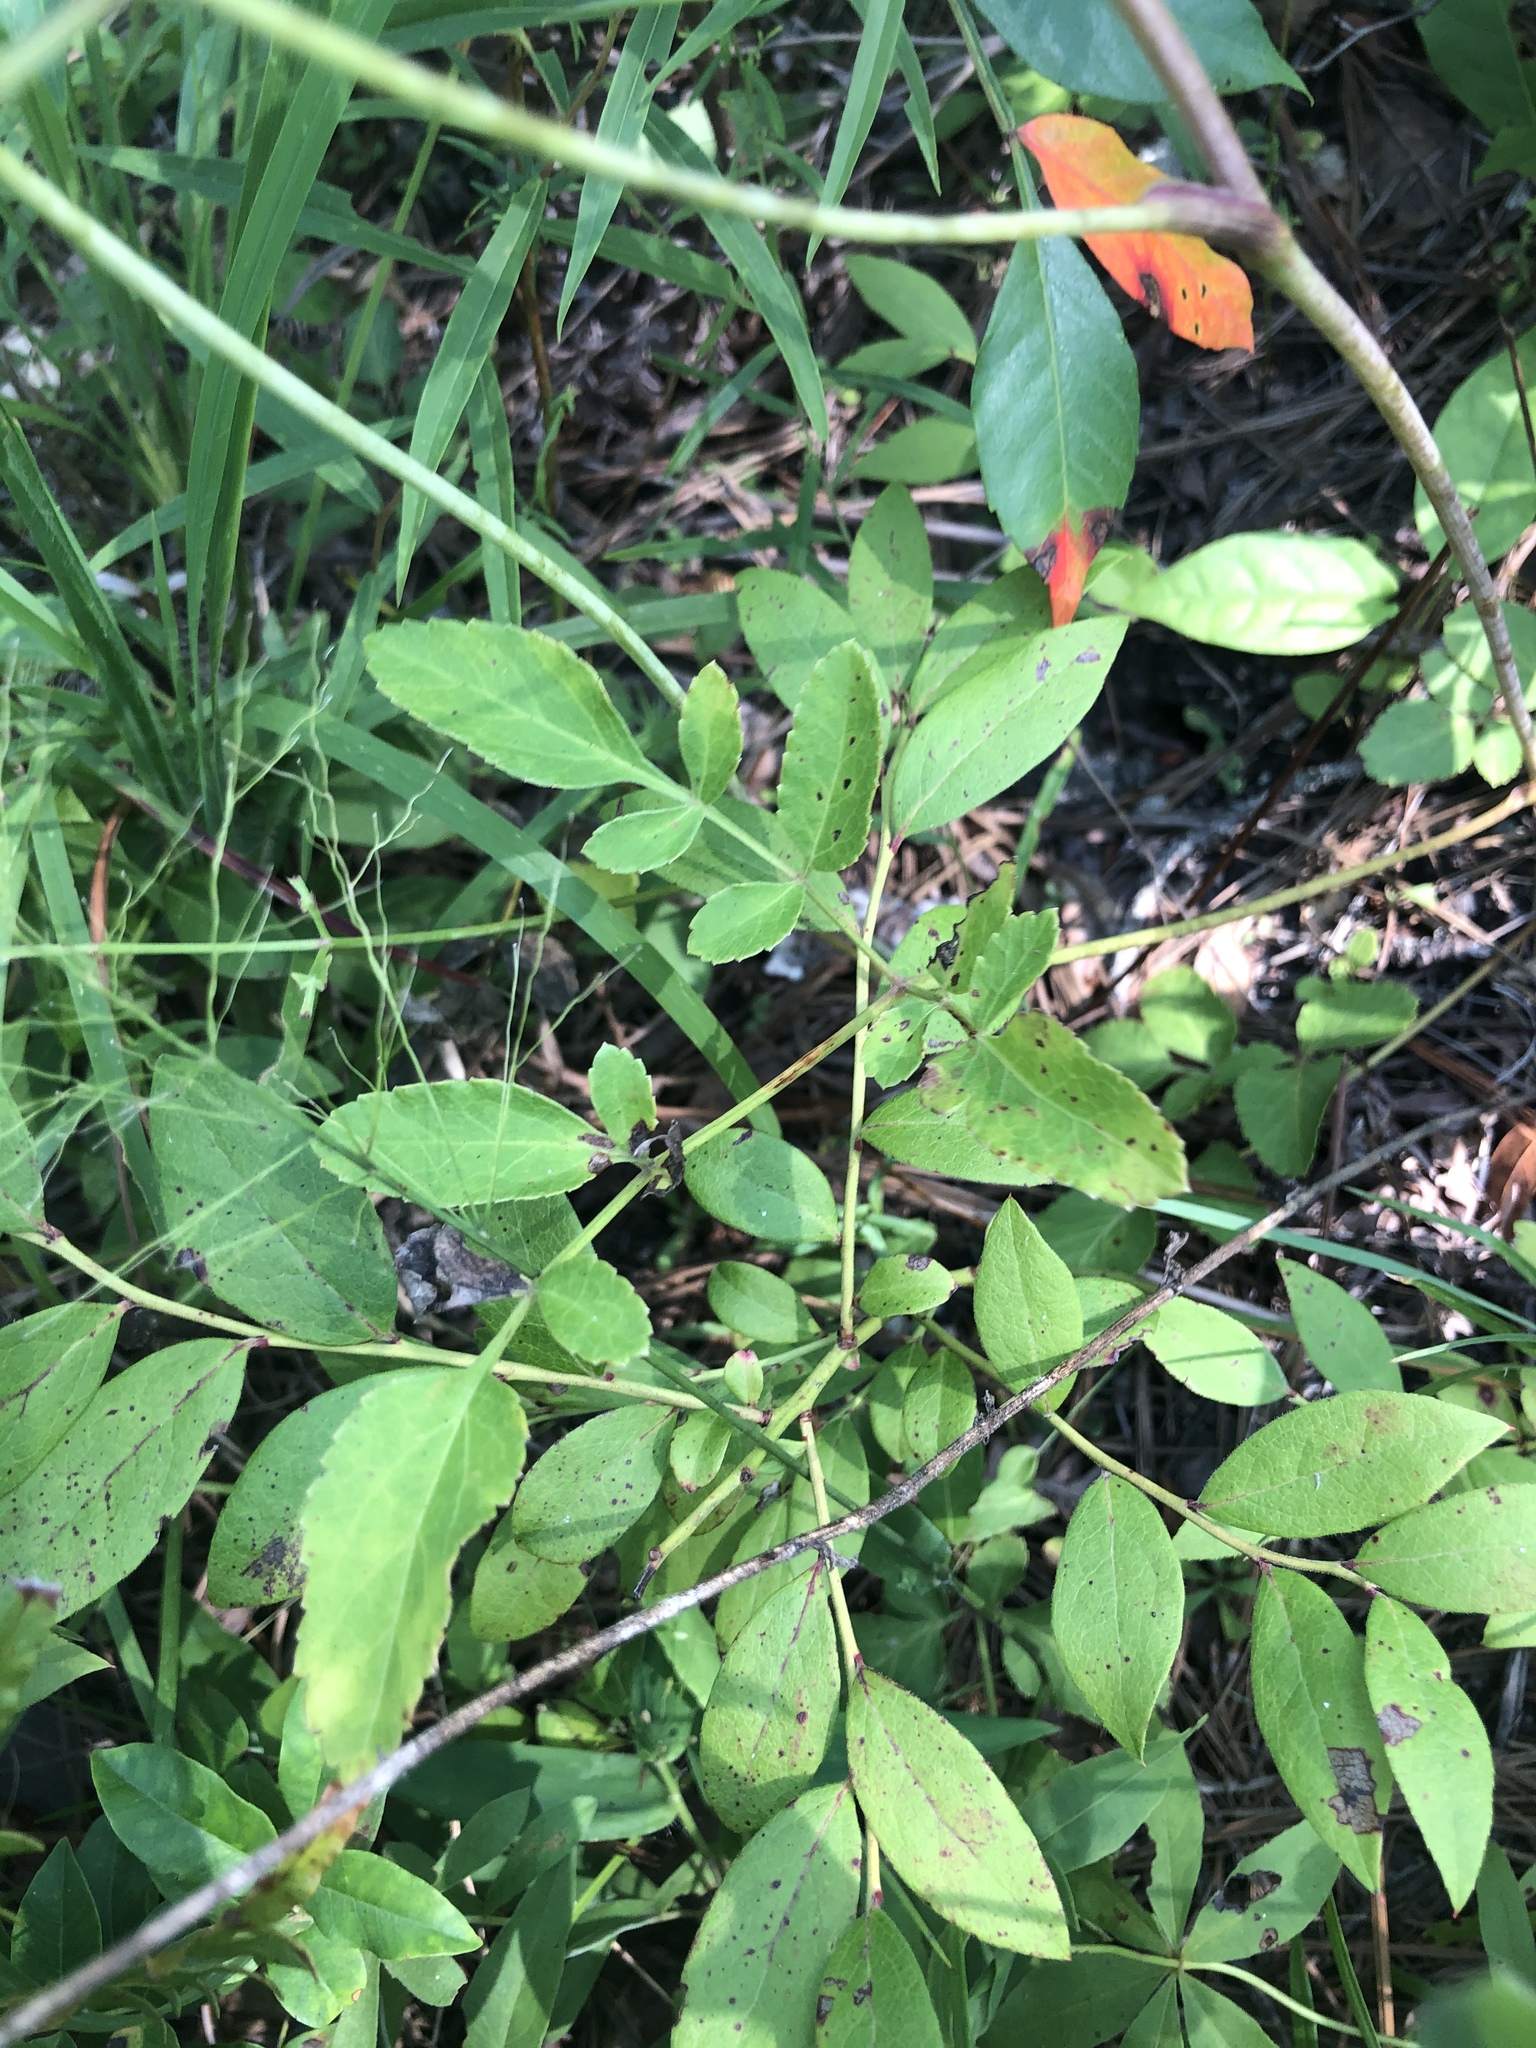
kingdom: Plantae
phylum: Tracheophyta
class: Magnoliopsida
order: Apiales
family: Apiaceae
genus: Angelica
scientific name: Angelica venenosa
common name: Hairy angelica
